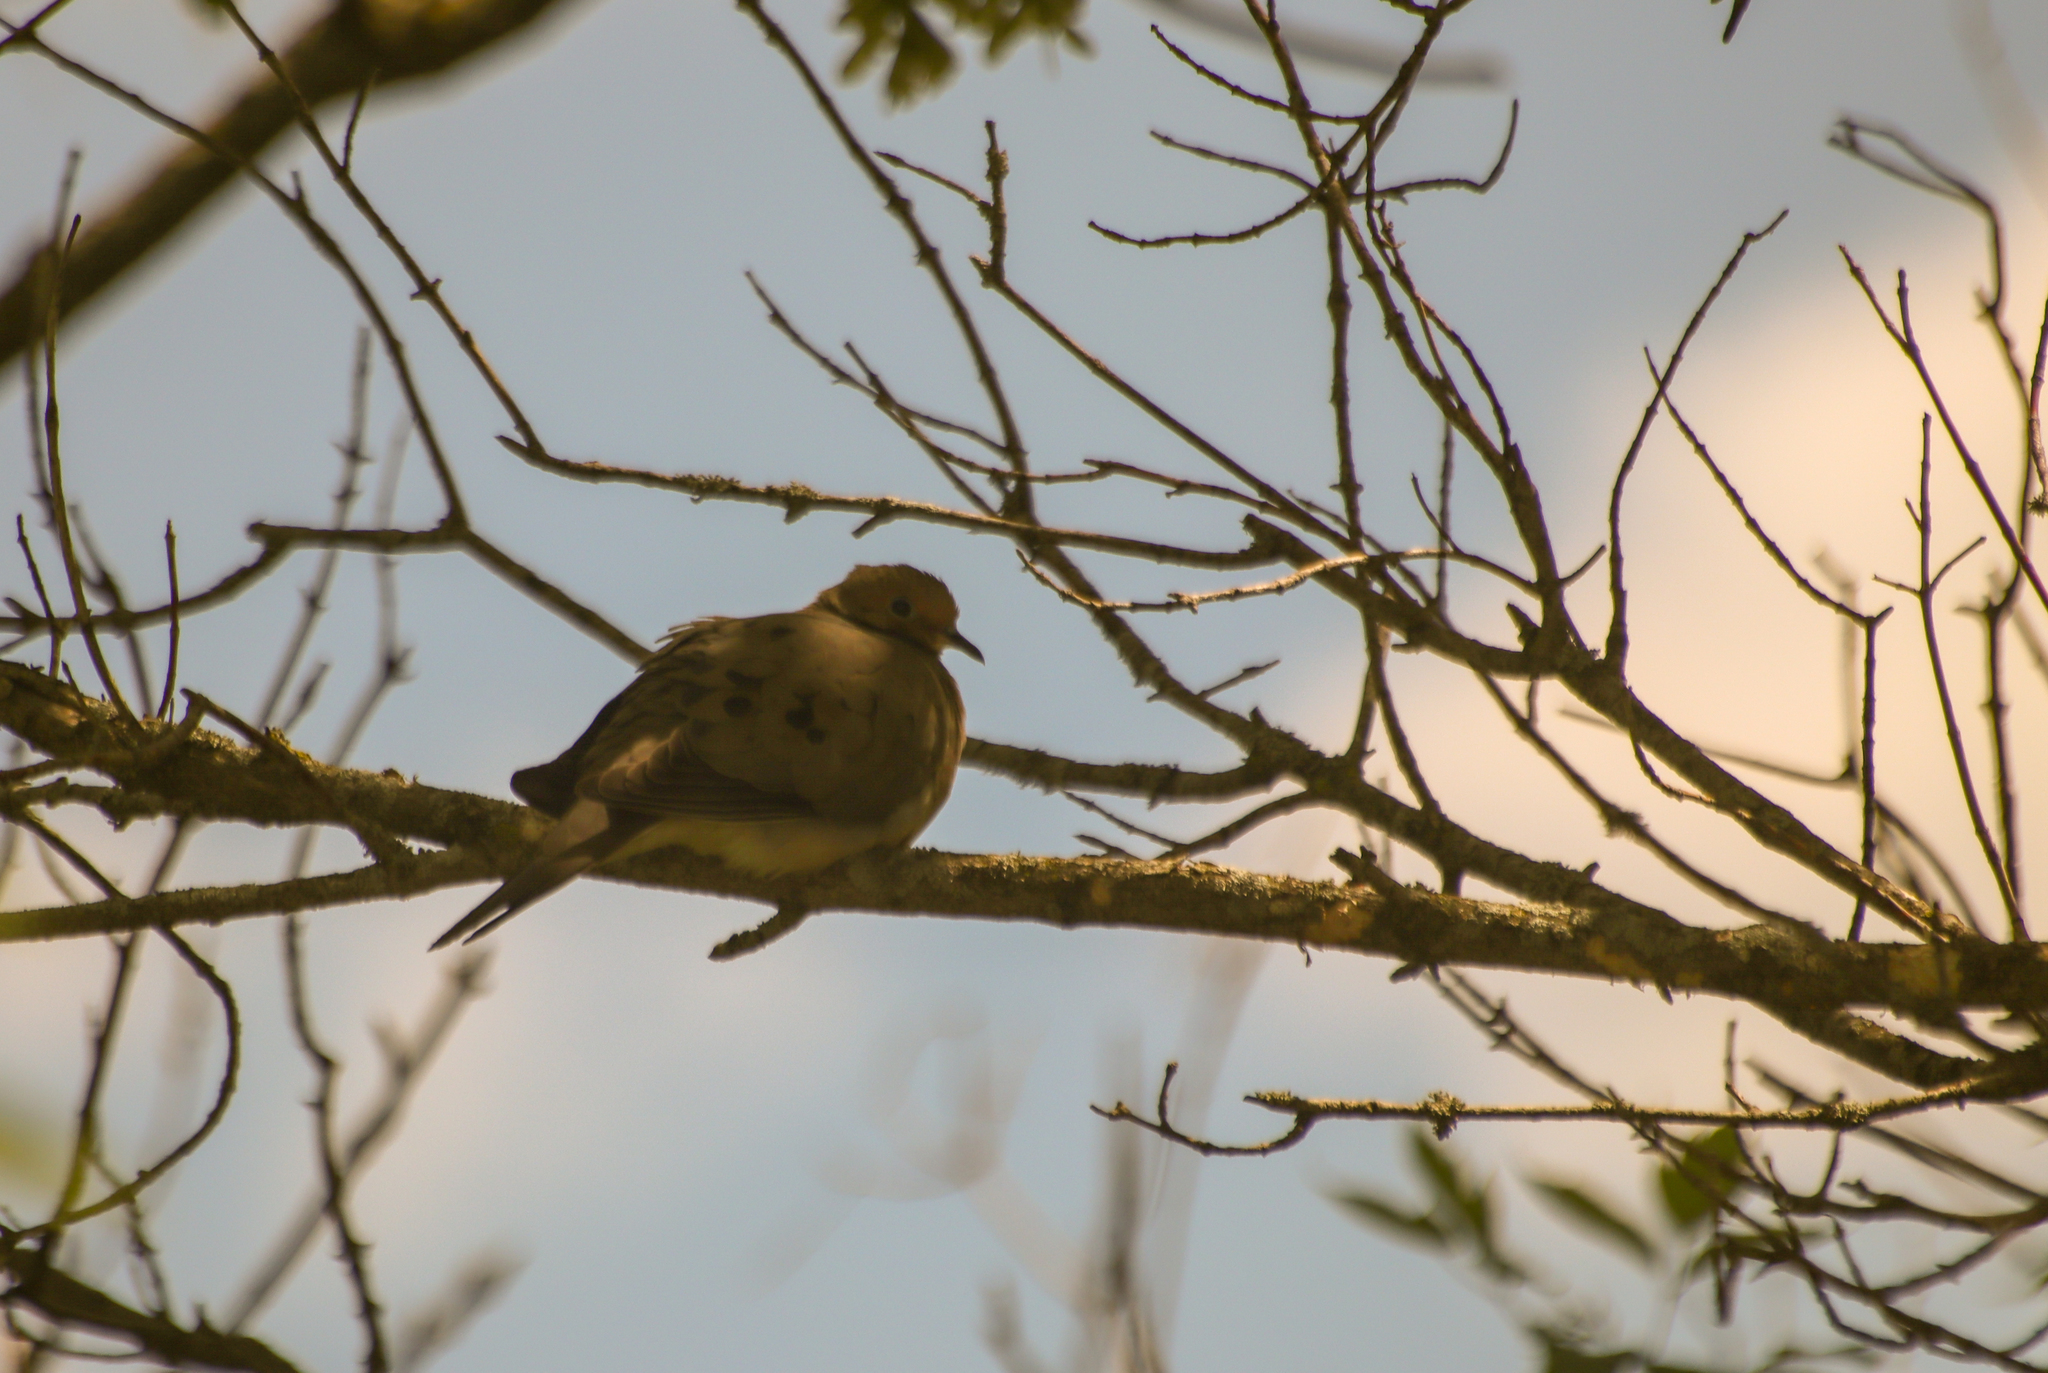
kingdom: Animalia
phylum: Chordata
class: Aves
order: Columbiformes
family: Columbidae
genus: Zenaida
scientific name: Zenaida macroura
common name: Mourning dove
